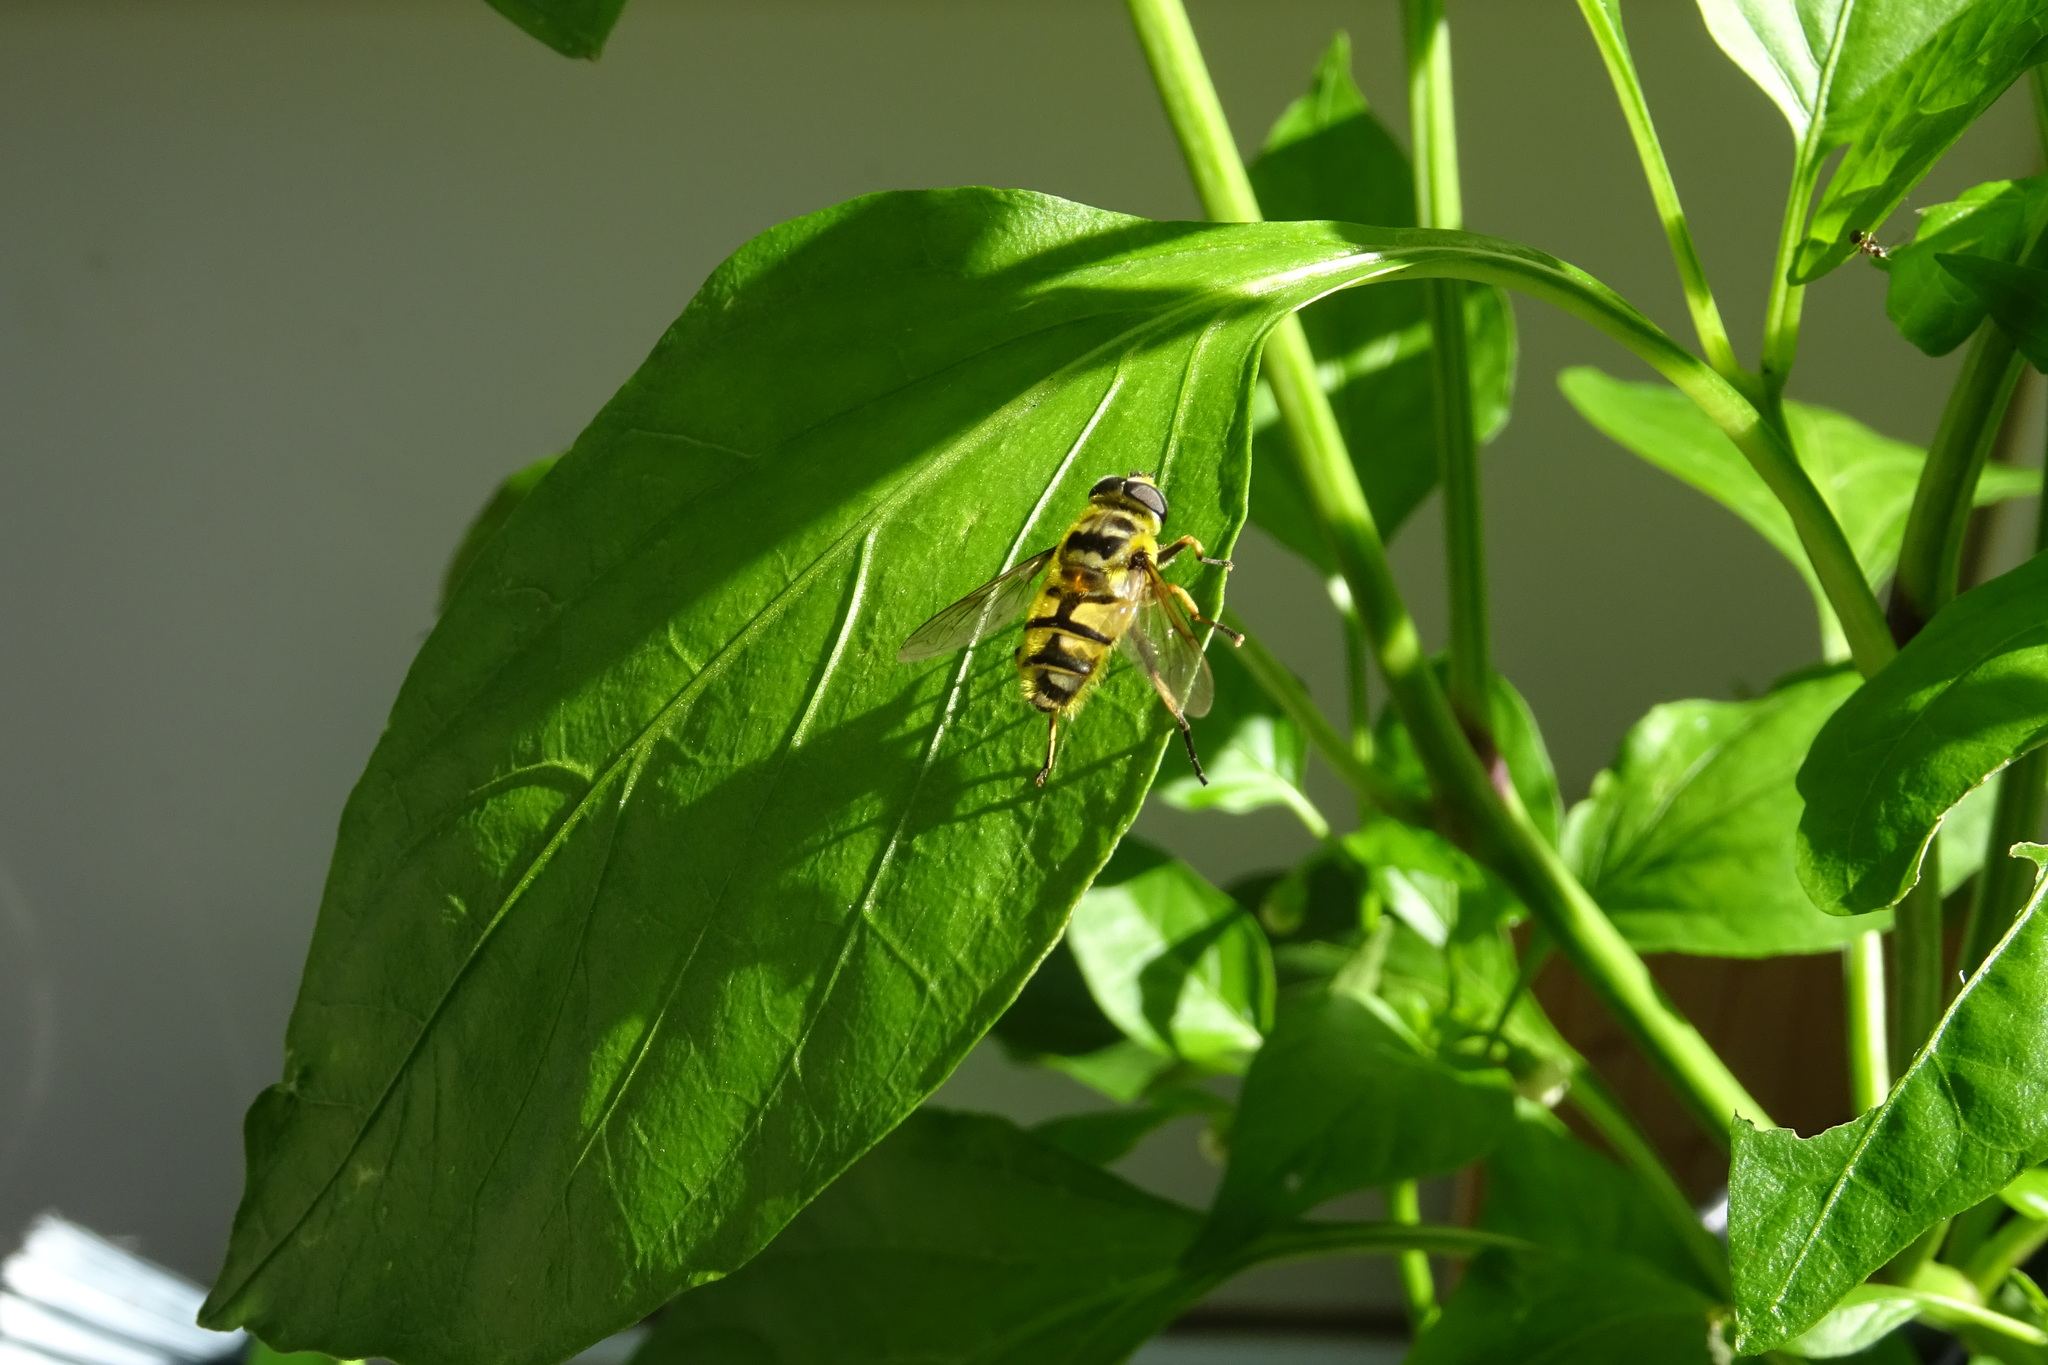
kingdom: Animalia
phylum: Arthropoda
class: Insecta
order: Diptera
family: Syrphidae
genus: Myathropa
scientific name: Myathropa florea
